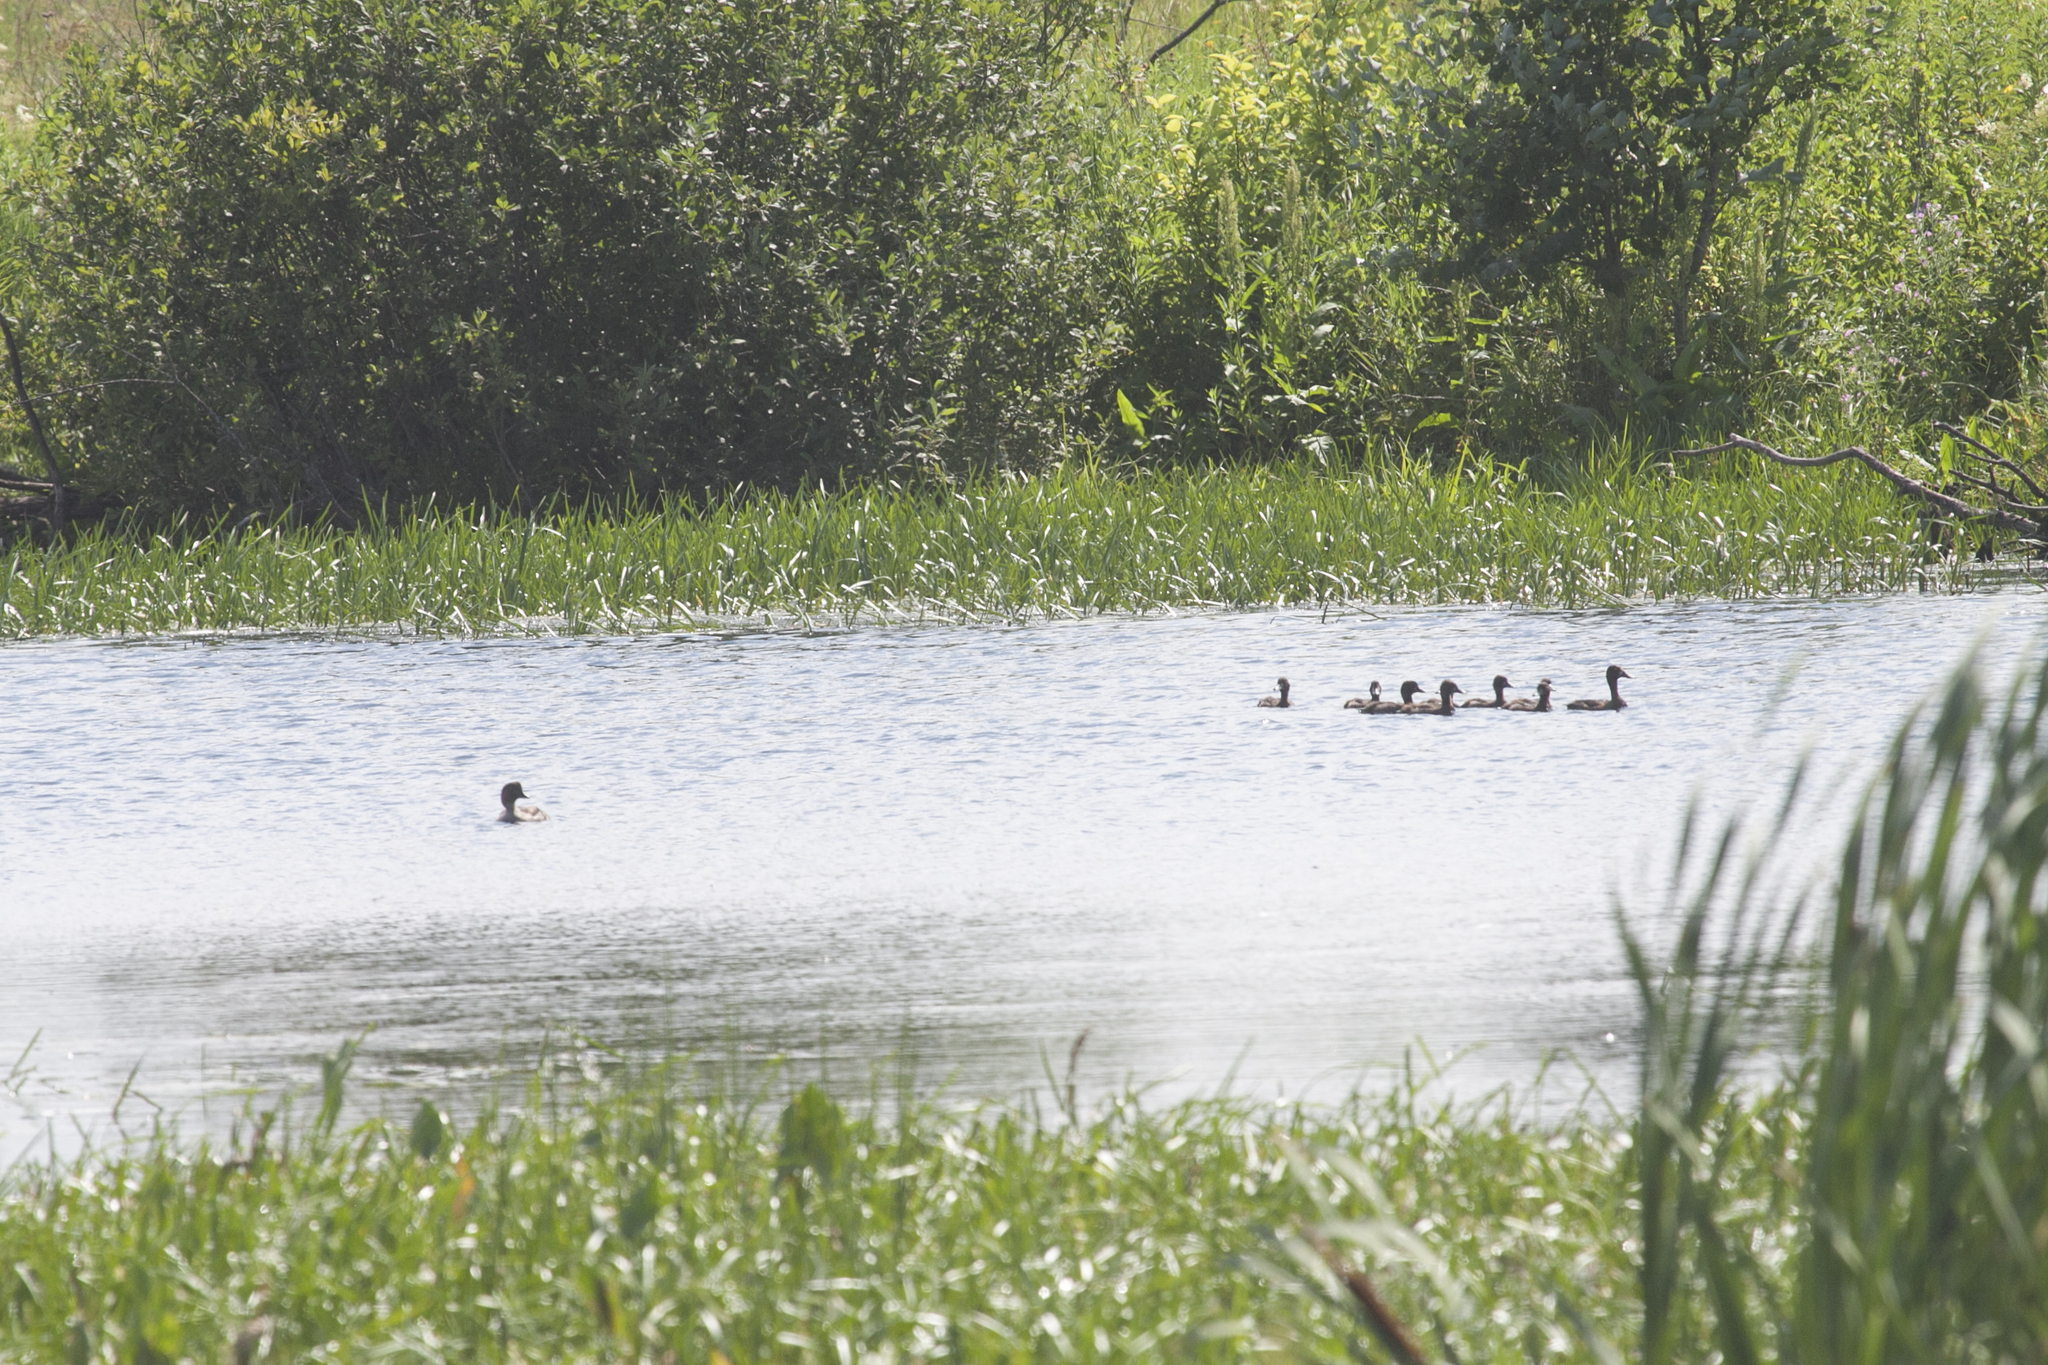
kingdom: Animalia
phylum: Chordata
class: Aves
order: Anseriformes
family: Anatidae
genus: Aythya
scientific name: Aythya fuligula
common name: Tufted duck
